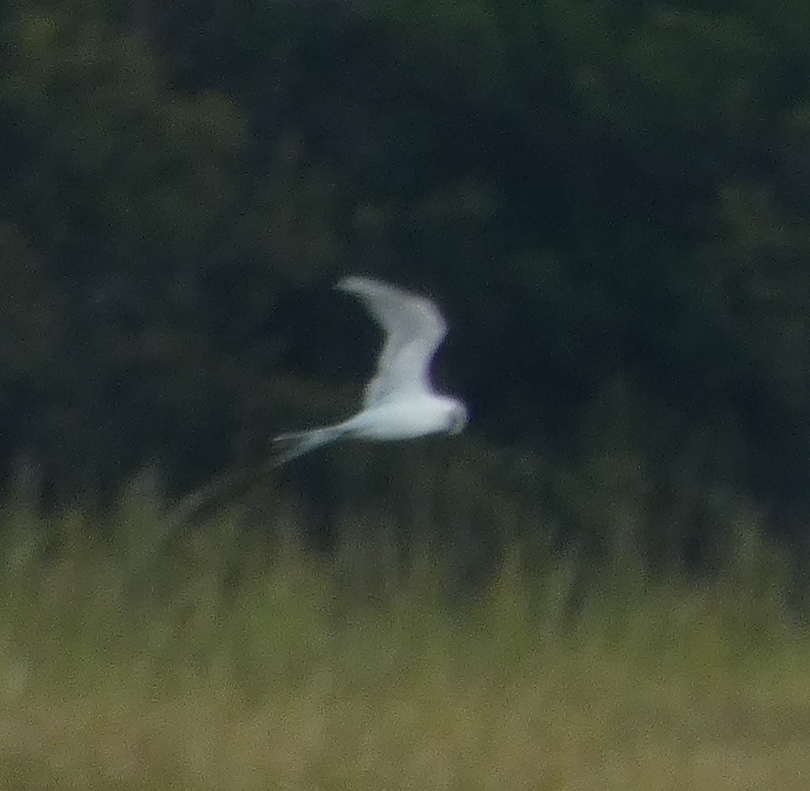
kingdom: Animalia
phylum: Chordata
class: Aves
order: Charadriiformes
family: Laridae
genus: Sterna
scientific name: Sterna forsteri
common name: Forster's tern
